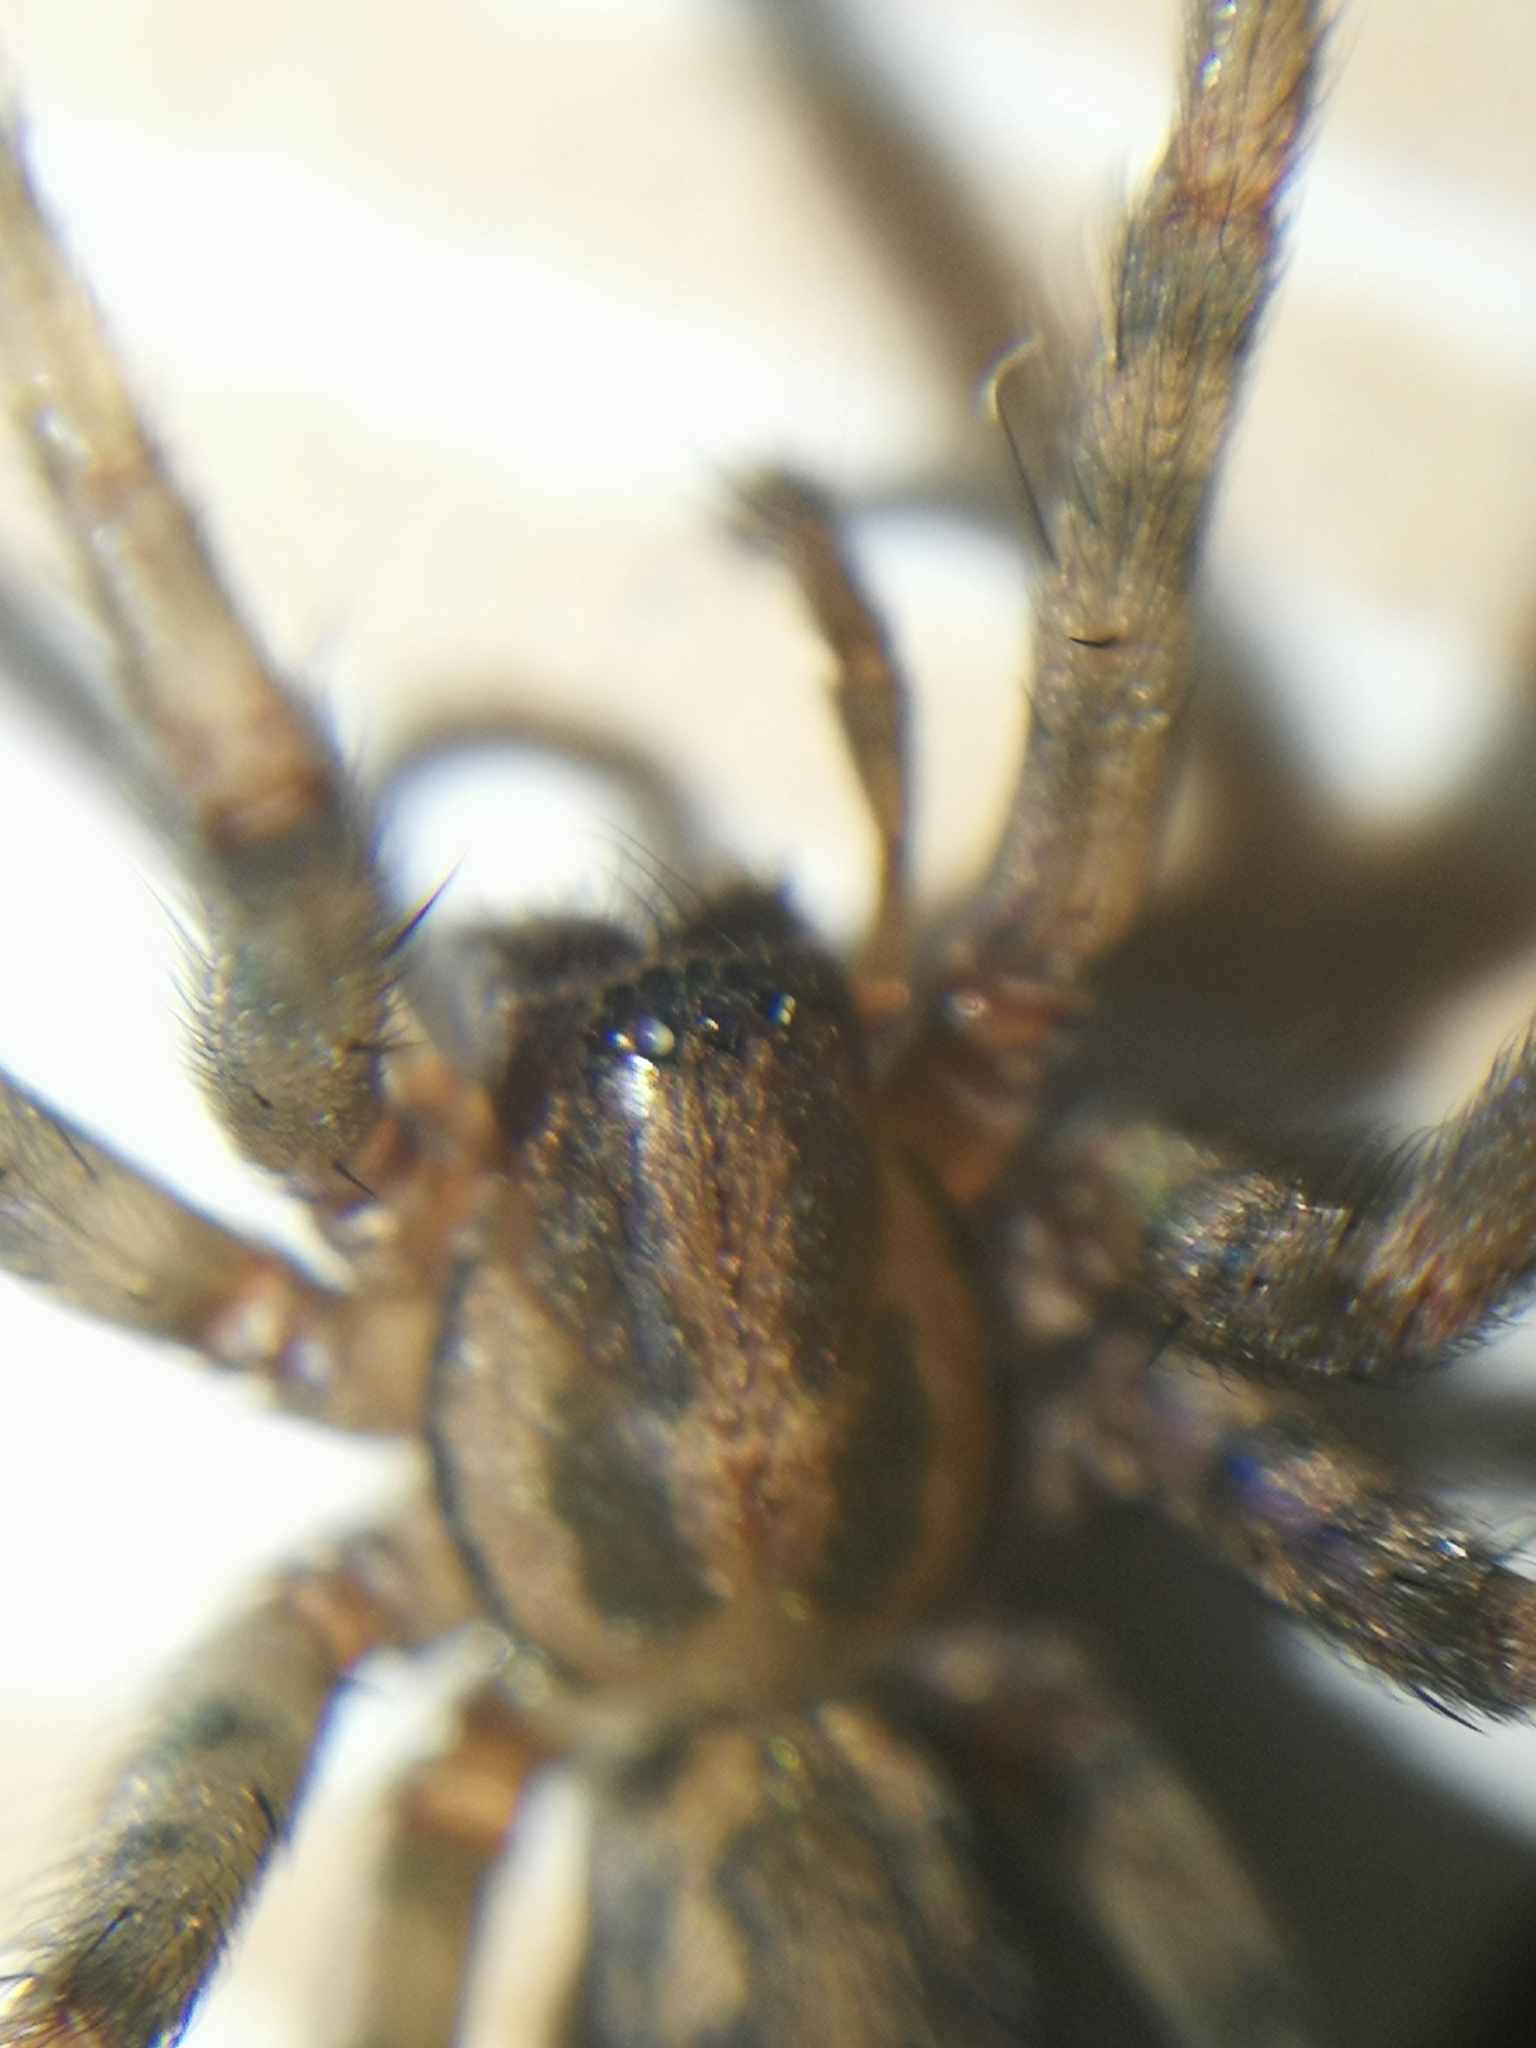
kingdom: Animalia
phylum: Arthropoda
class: Arachnida
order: Araneae
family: Agelenidae
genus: Tegenaria
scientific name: Tegenaria domestica
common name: Barn funnel weaver
